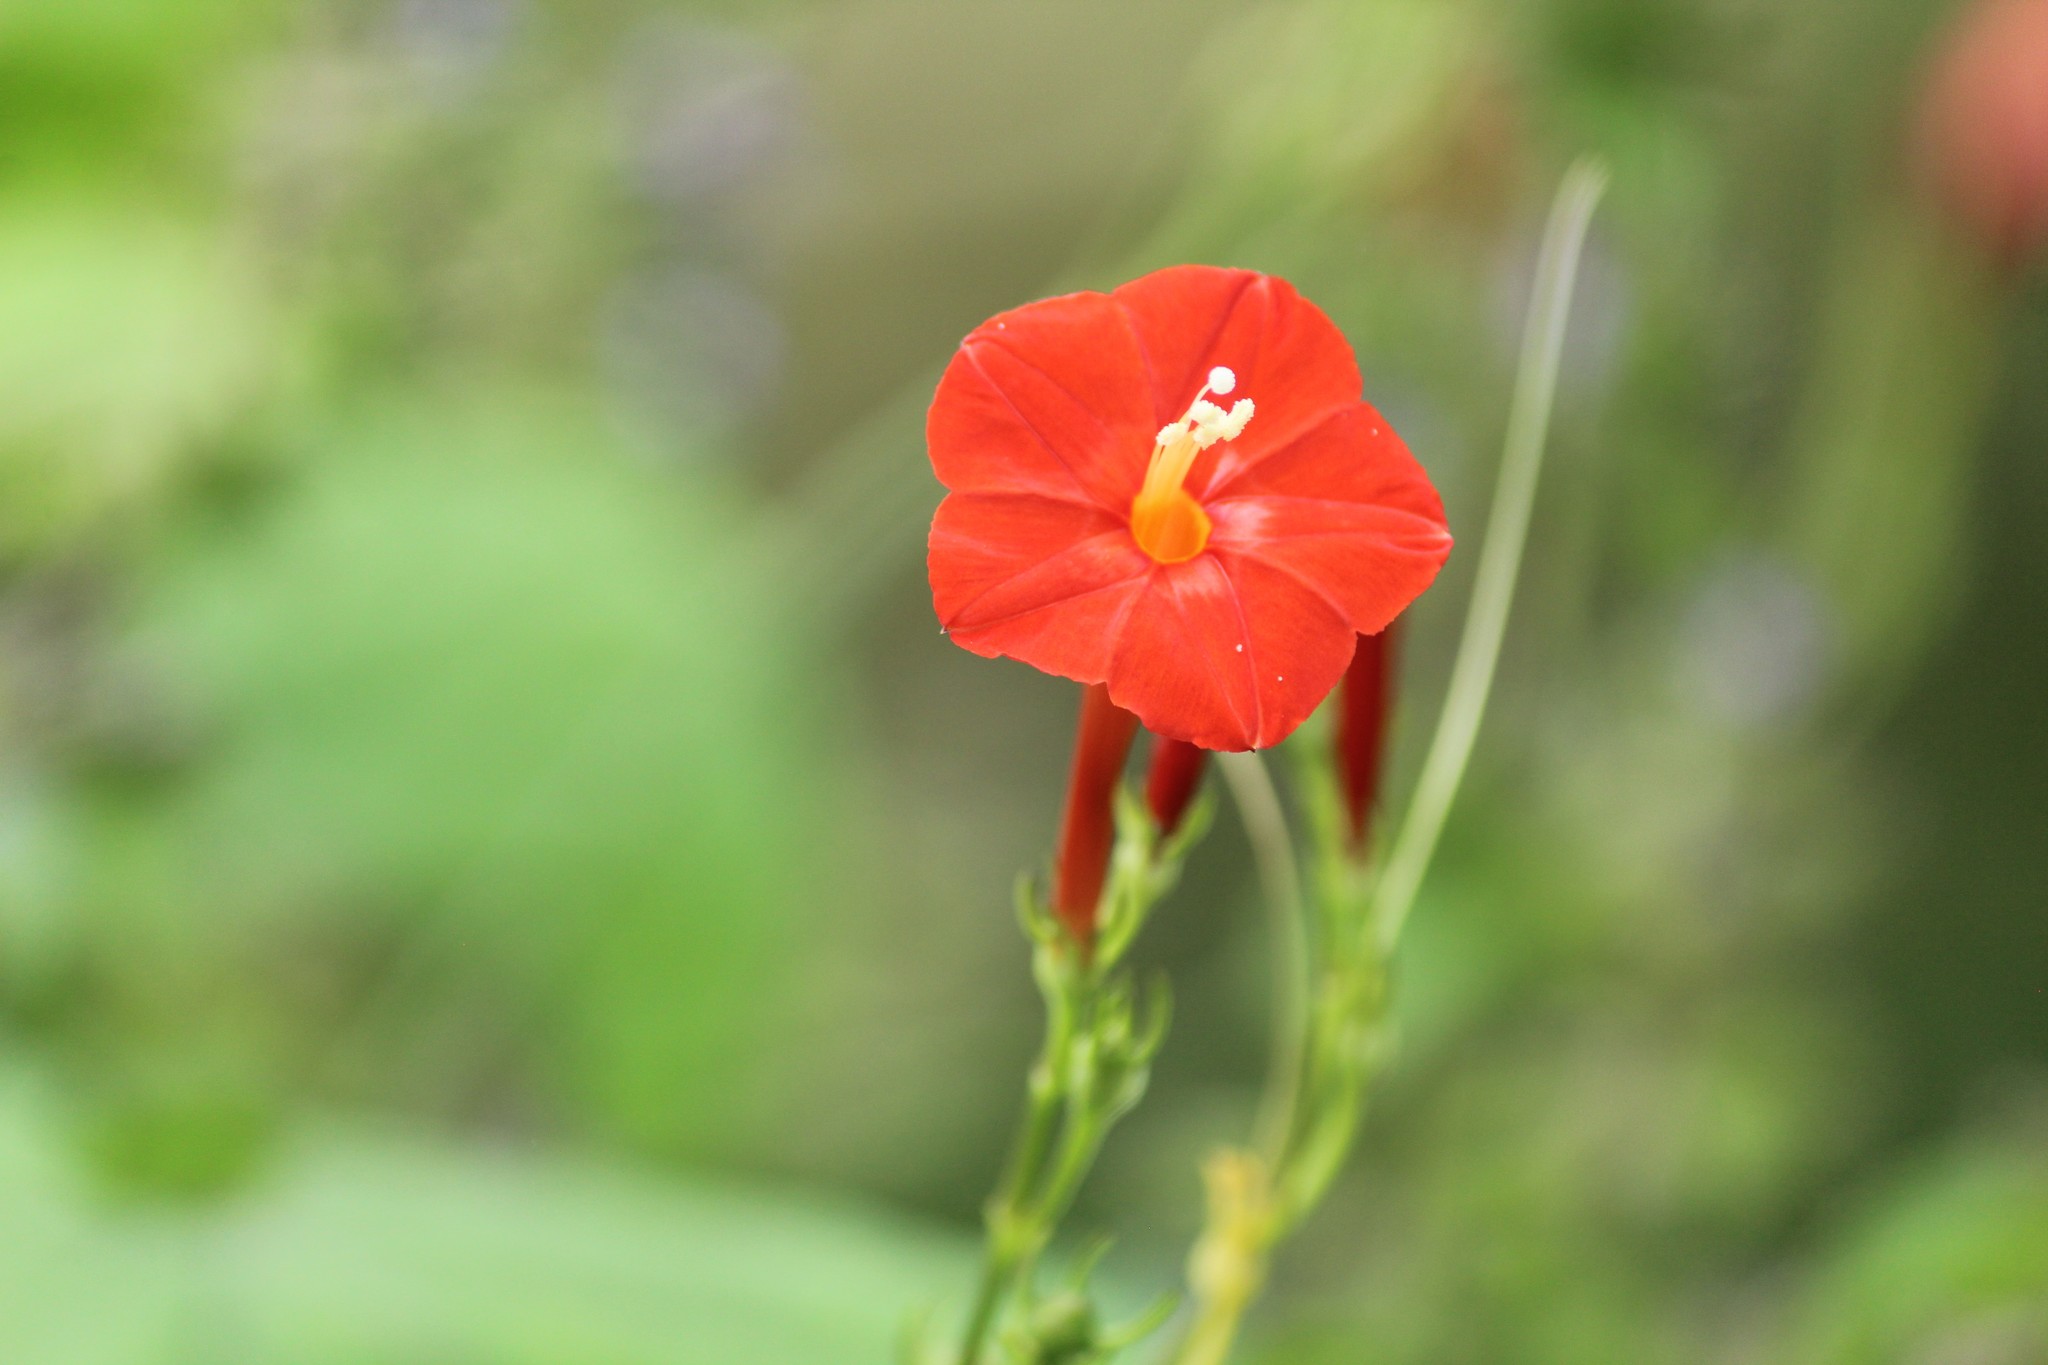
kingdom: Plantae
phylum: Tracheophyta
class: Magnoliopsida
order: Solanales
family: Convolvulaceae
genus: Ipomoea
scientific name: Ipomoea hederifolia
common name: Ivy-leaf morning-glory
